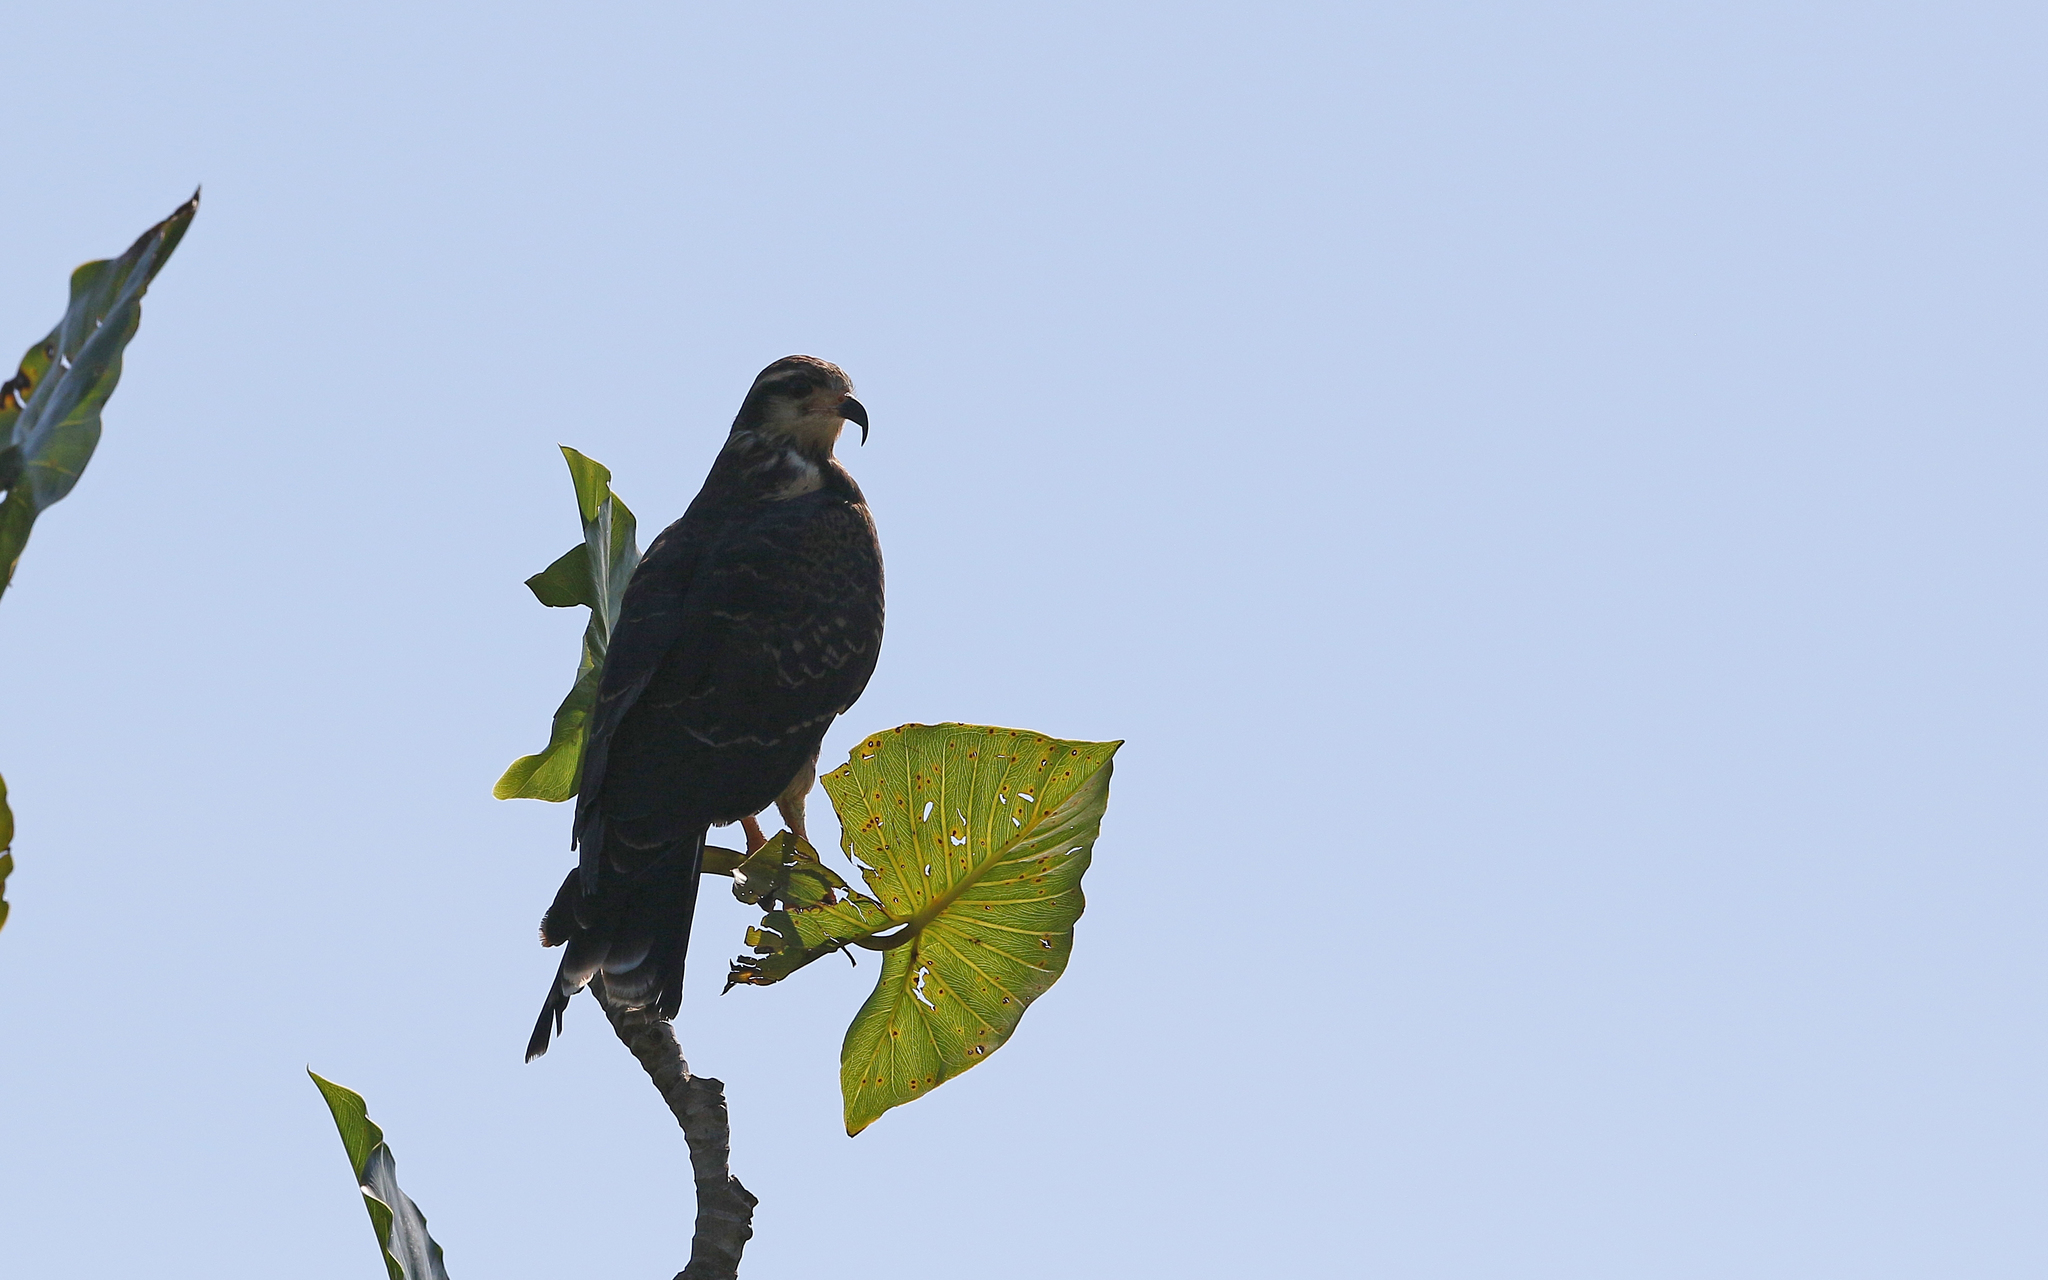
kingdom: Animalia
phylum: Chordata
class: Aves
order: Accipitriformes
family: Accipitridae
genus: Rostrhamus
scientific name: Rostrhamus sociabilis
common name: Snail kite
